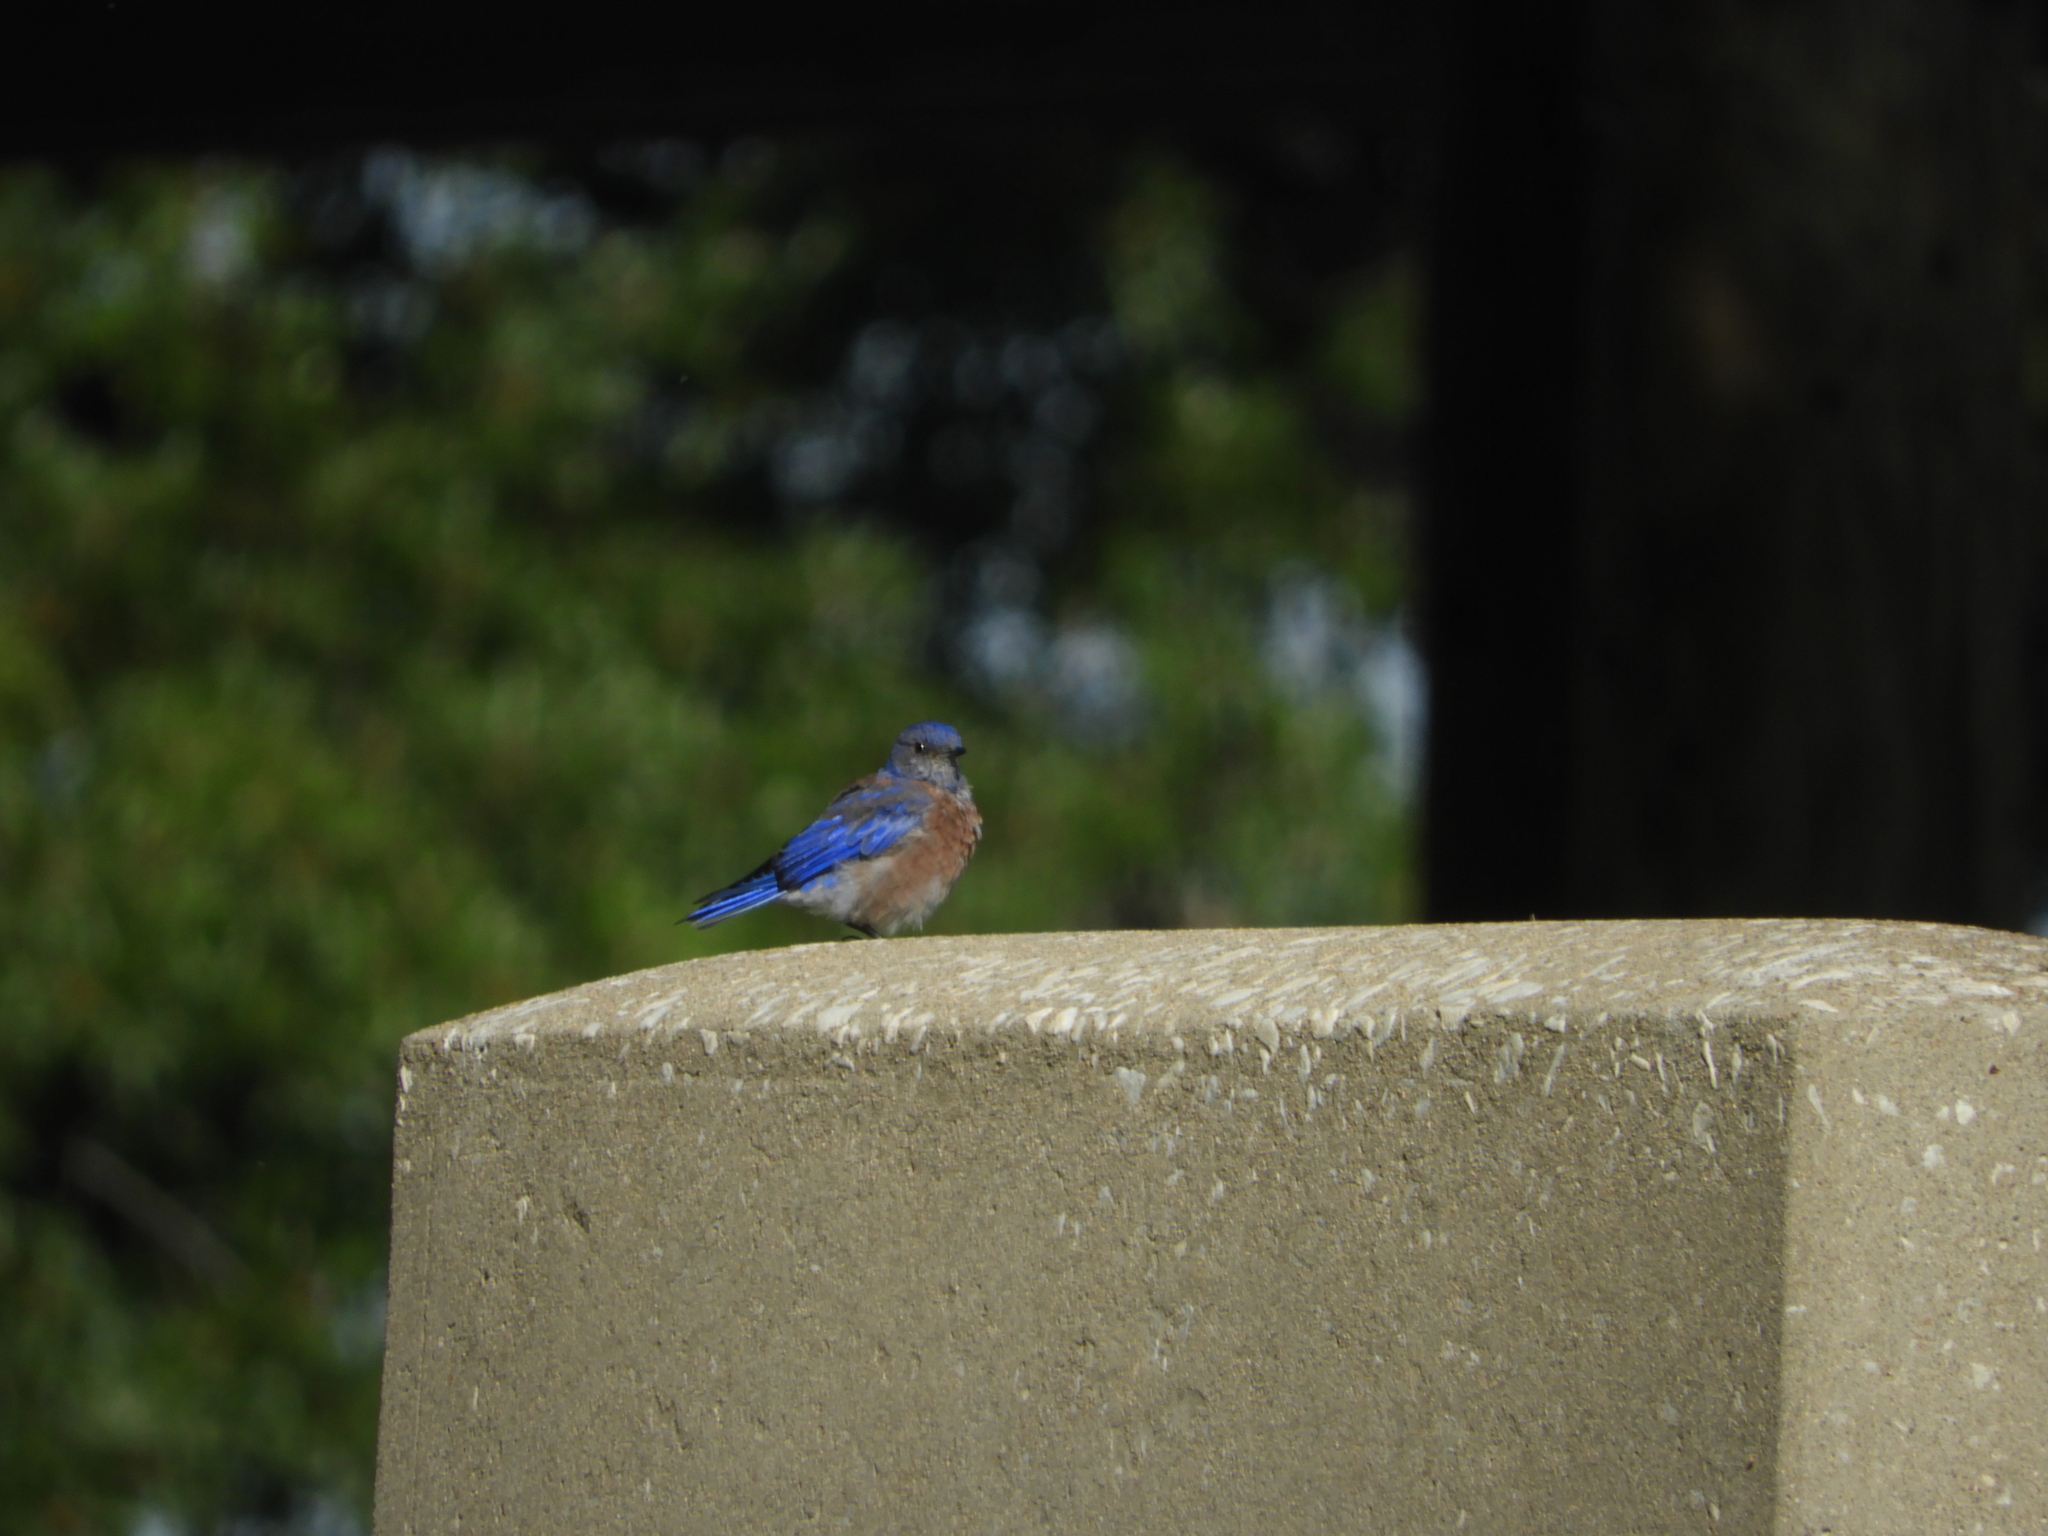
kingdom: Animalia
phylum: Chordata
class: Aves
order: Passeriformes
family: Turdidae
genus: Sialia
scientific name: Sialia mexicana
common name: Western bluebird
